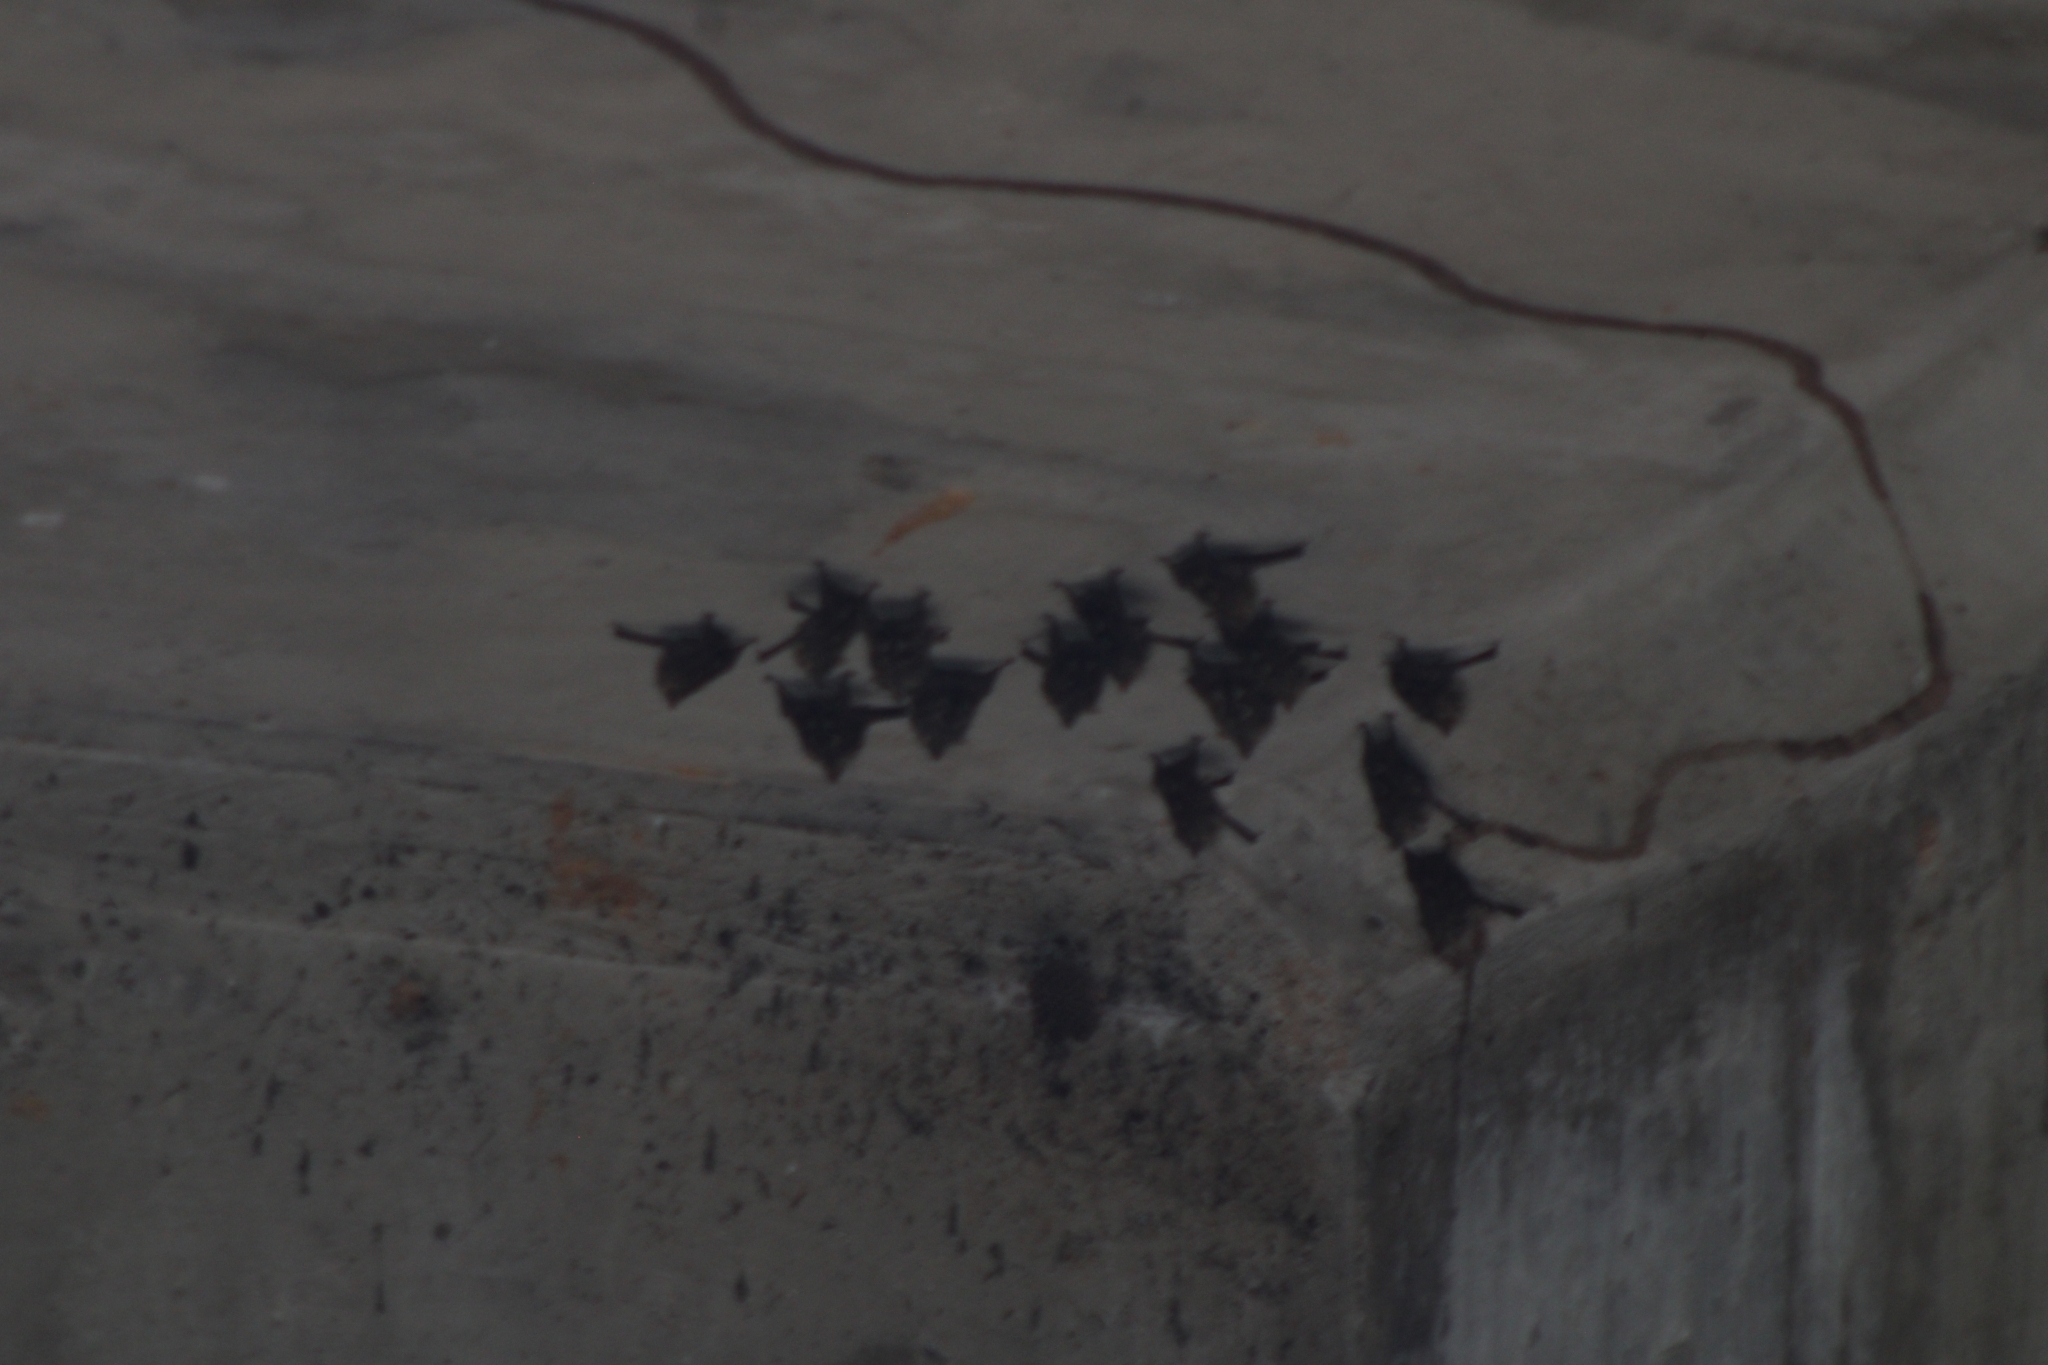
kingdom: Animalia
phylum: Chordata
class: Mammalia
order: Chiroptera
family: Emballonuridae
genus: Rhynchonycteris
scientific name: Rhynchonycteris naso
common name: Proboscis bat
